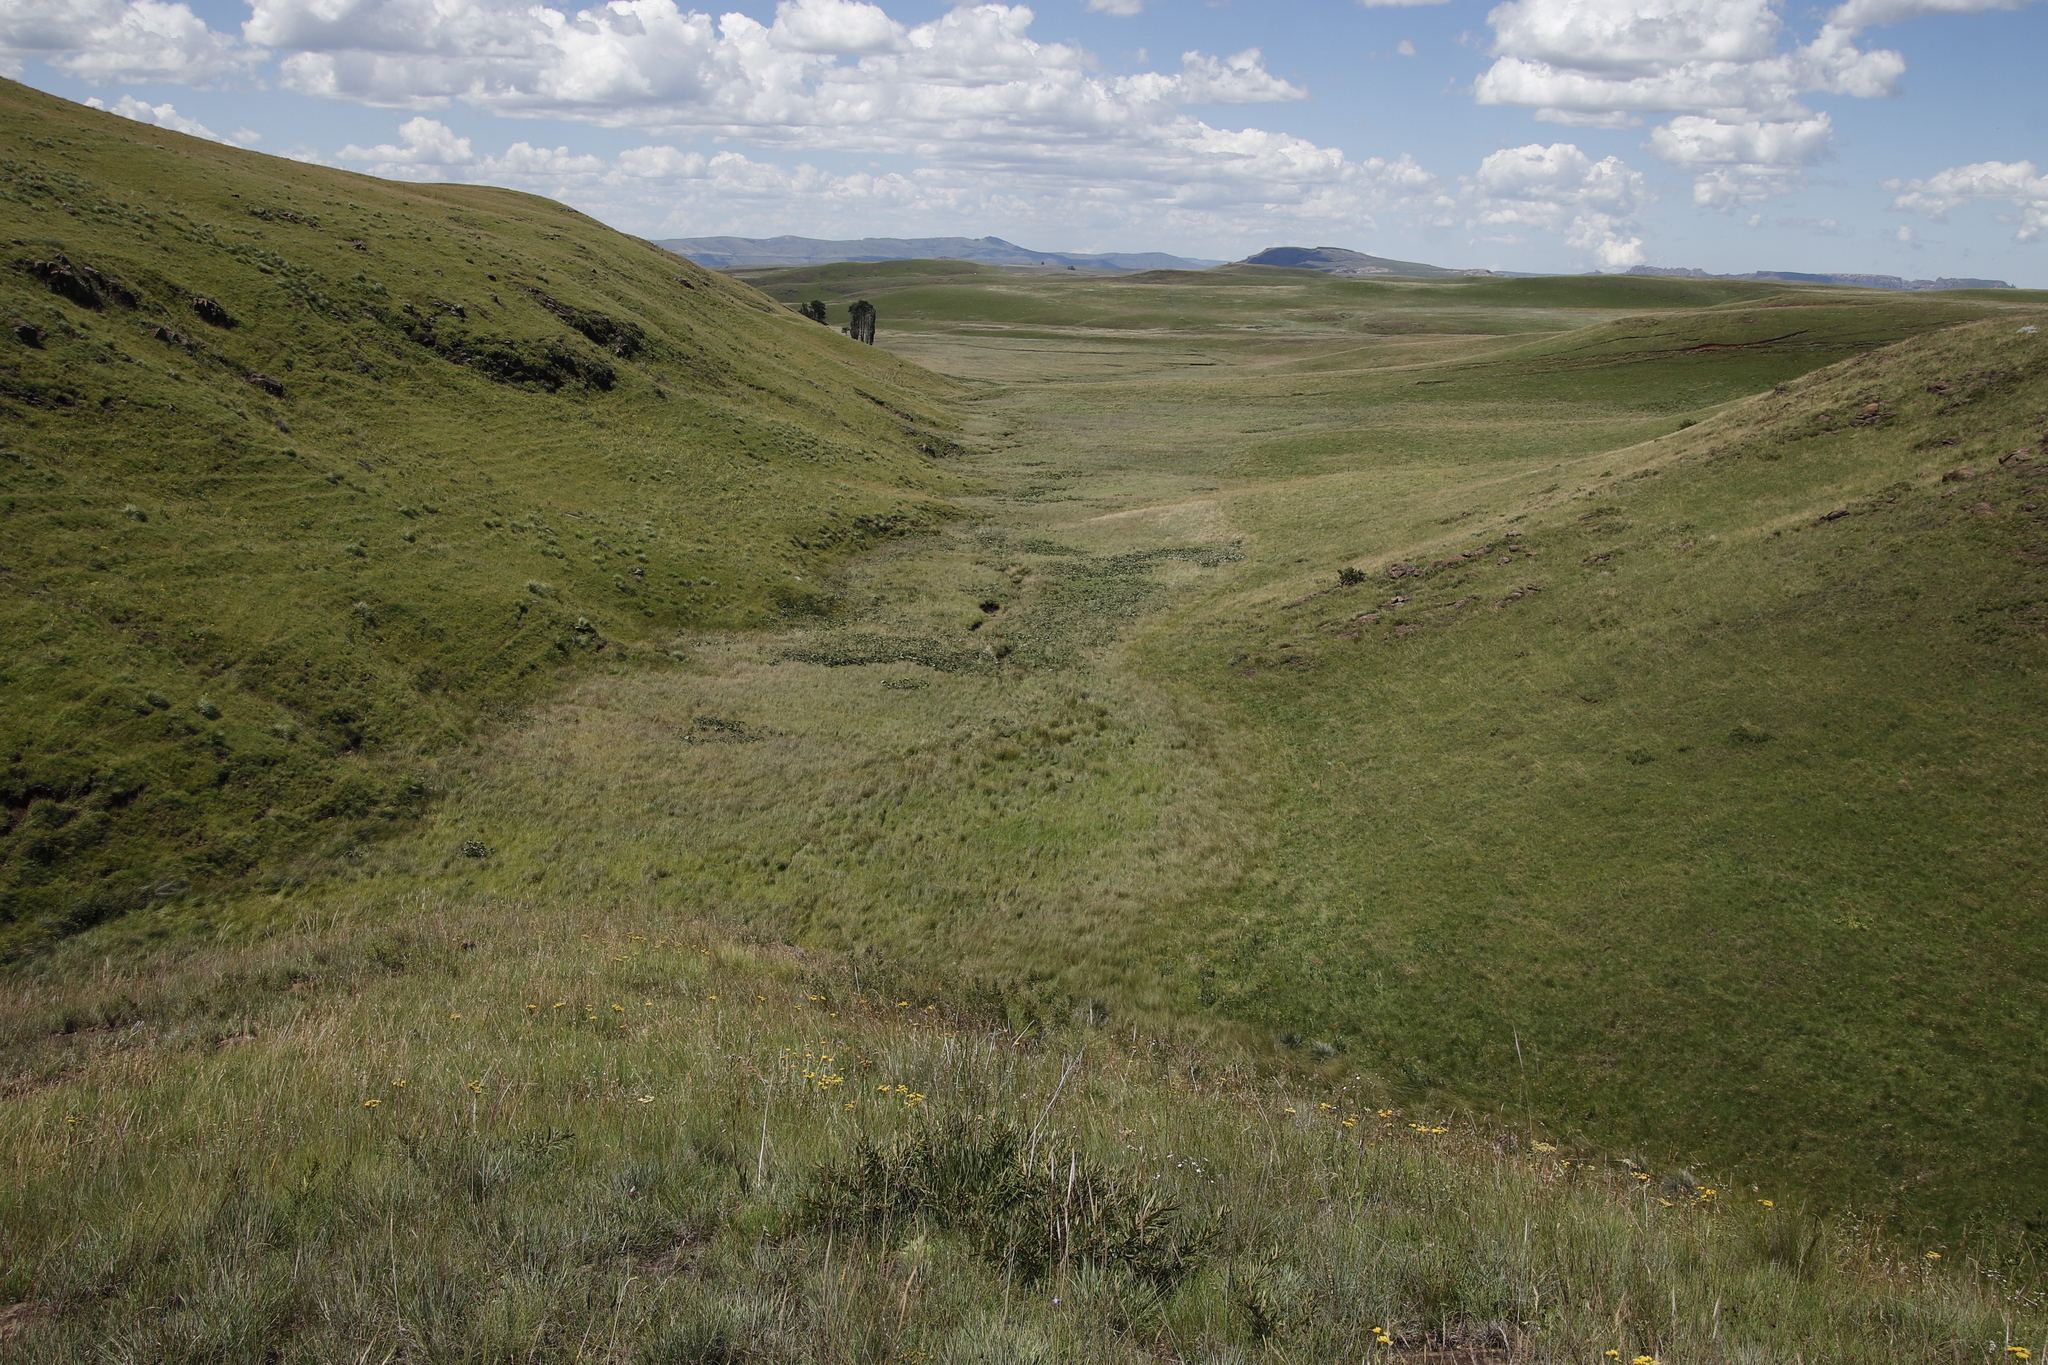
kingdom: Plantae
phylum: Tracheophyta
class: Magnoliopsida
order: Gunnerales
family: Gunneraceae
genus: Gunnera
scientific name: Gunnera perpensa
